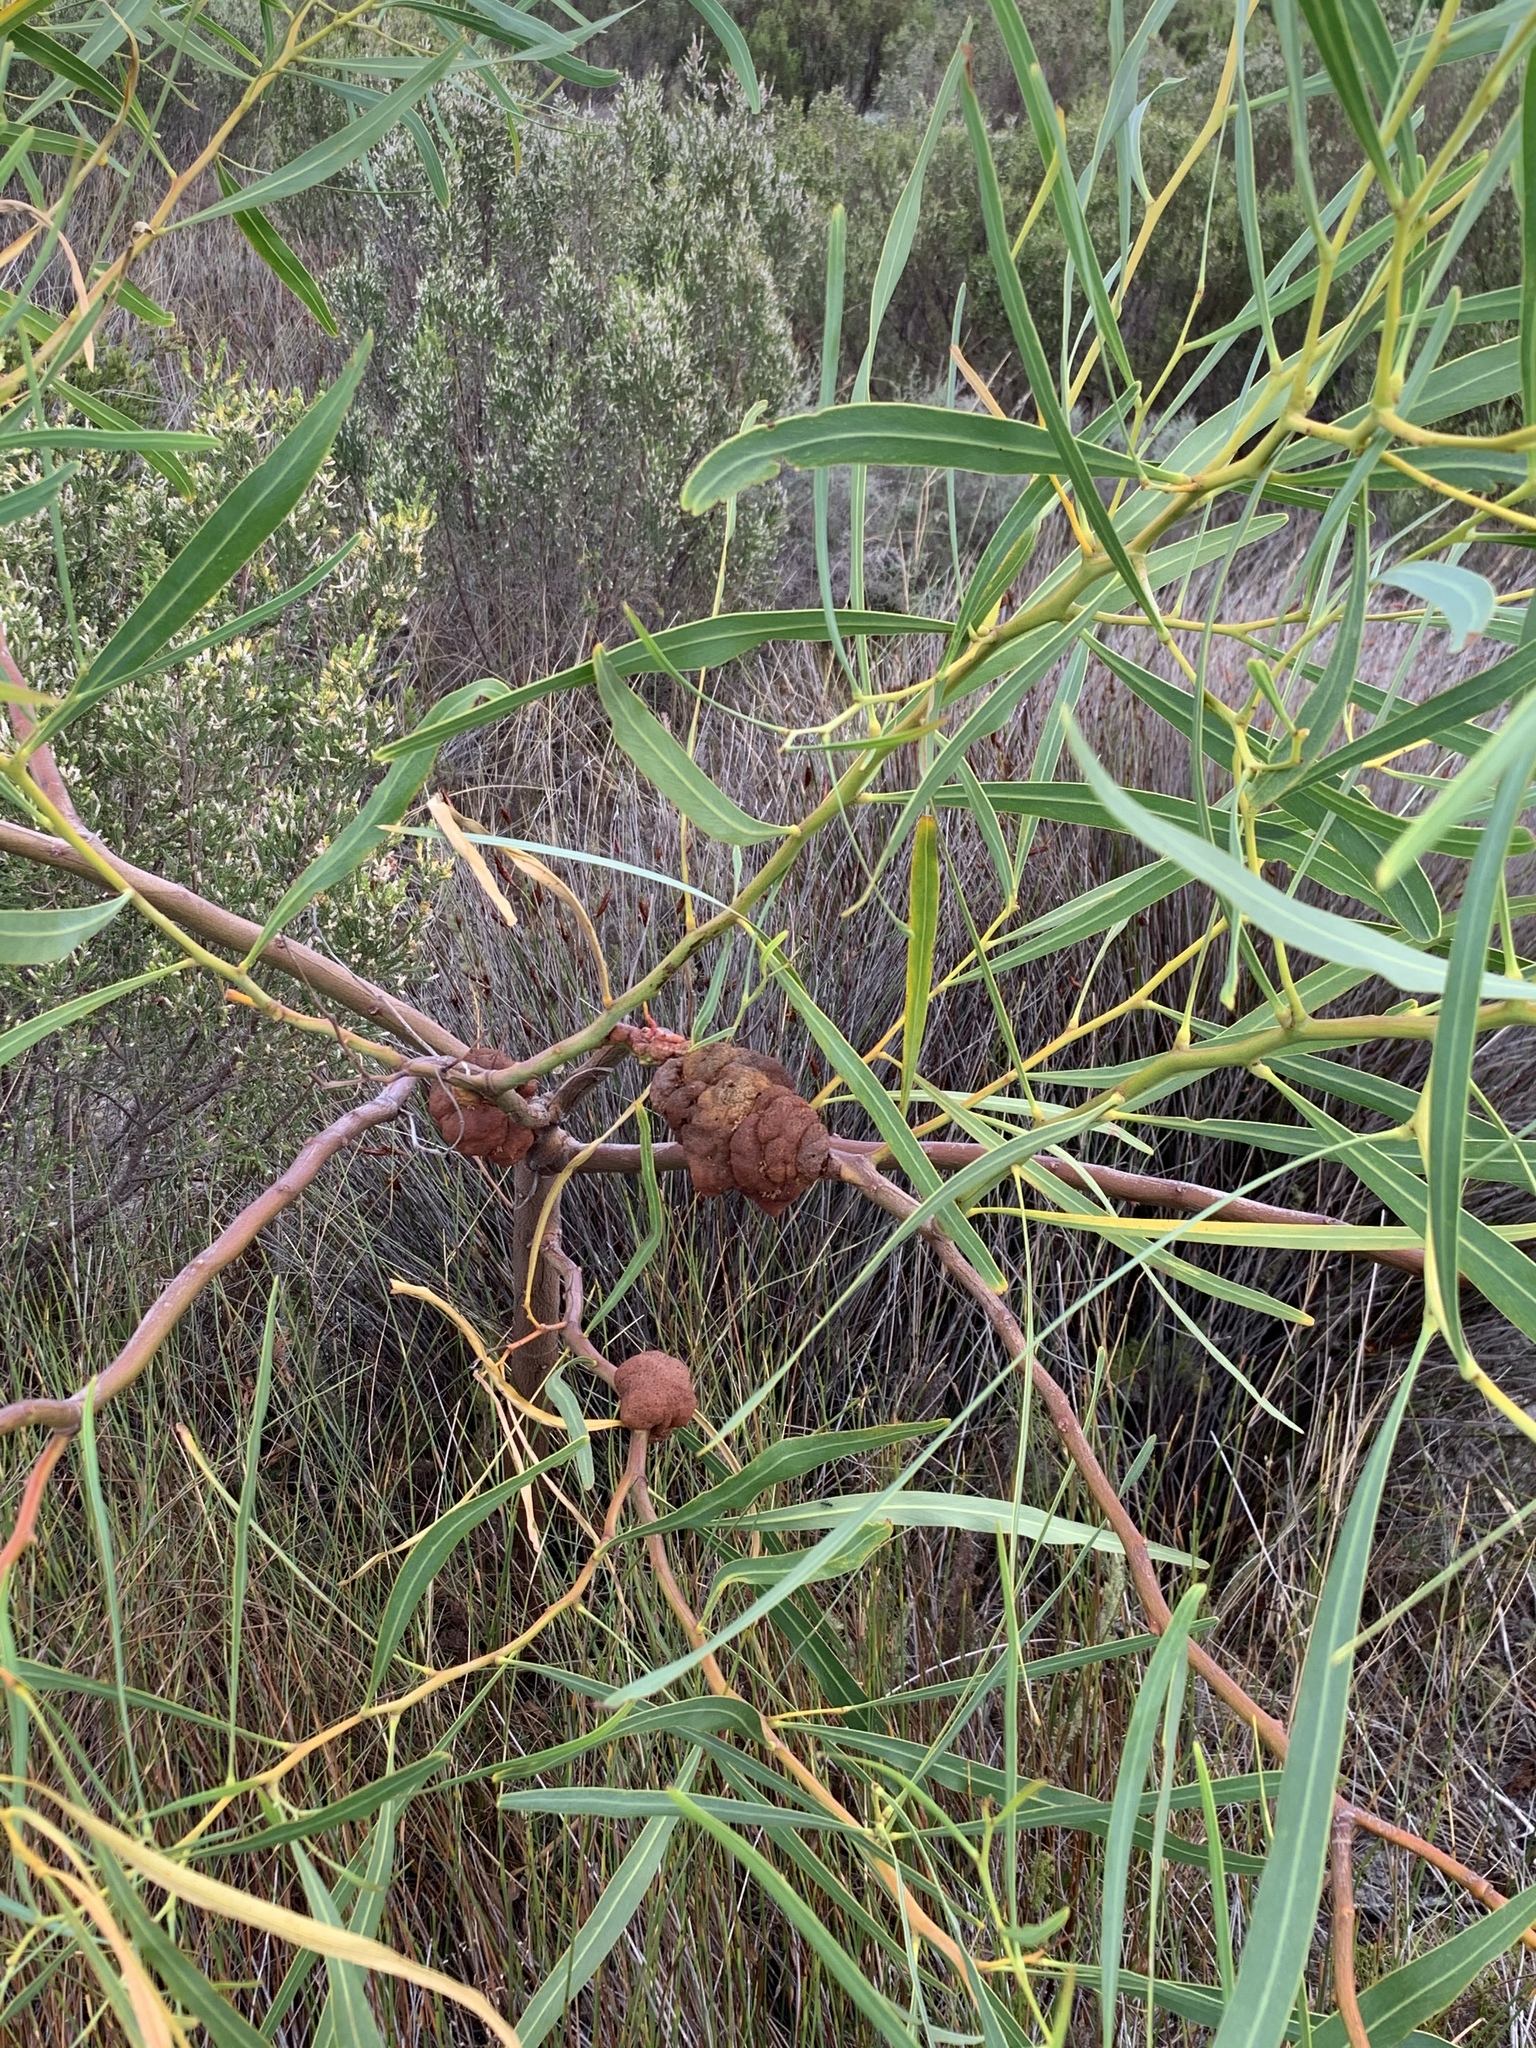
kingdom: Plantae
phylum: Tracheophyta
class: Magnoliopsida
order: Fabales
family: Fabaceae
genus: Acacia
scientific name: Acacia saligna
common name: Orange wattle
